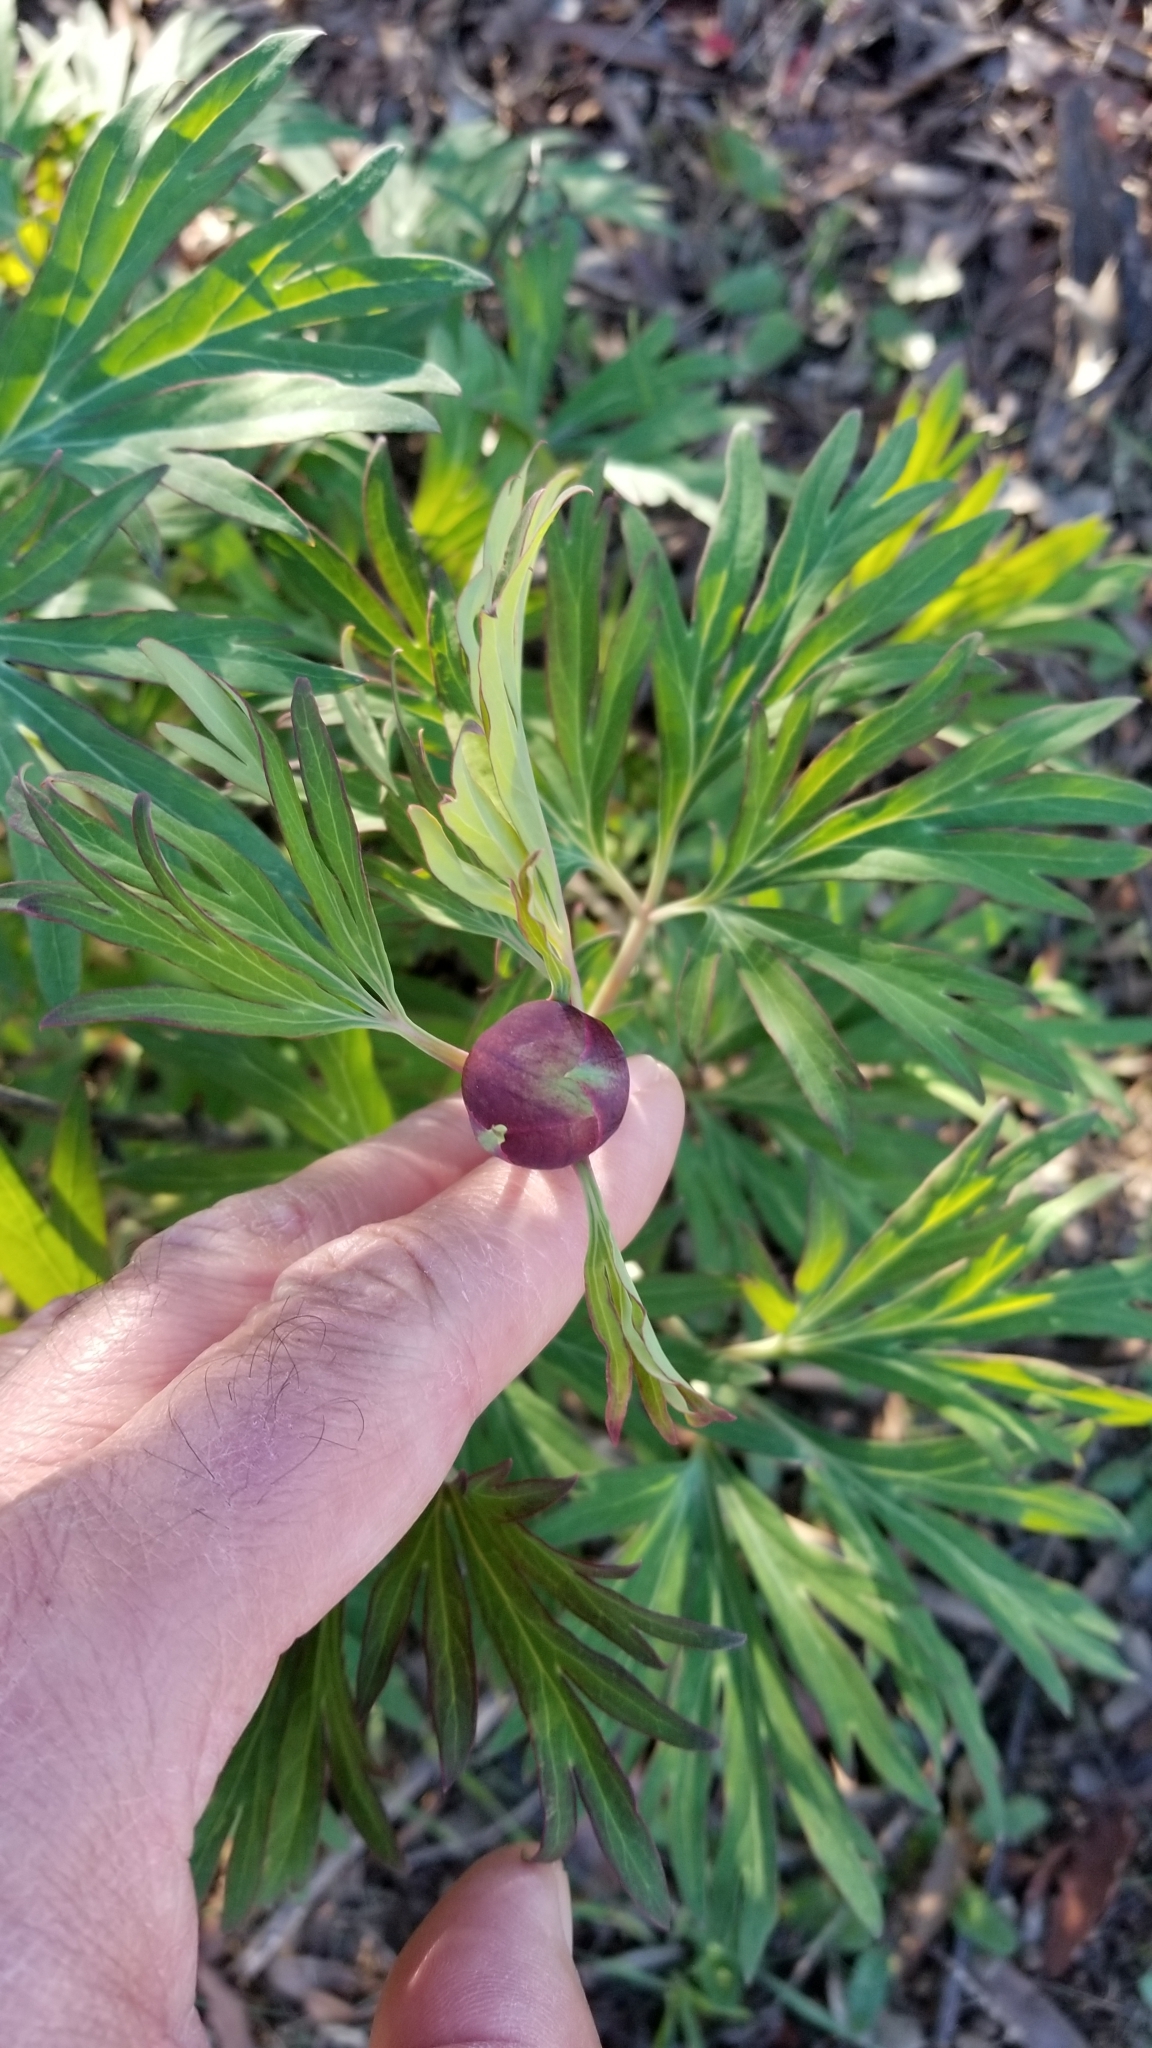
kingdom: Plantae
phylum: Tracheophyta
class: Magnoliopsida
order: Saxifragales
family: Paeoniaceae
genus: Paeonia
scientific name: Paeonia californica
